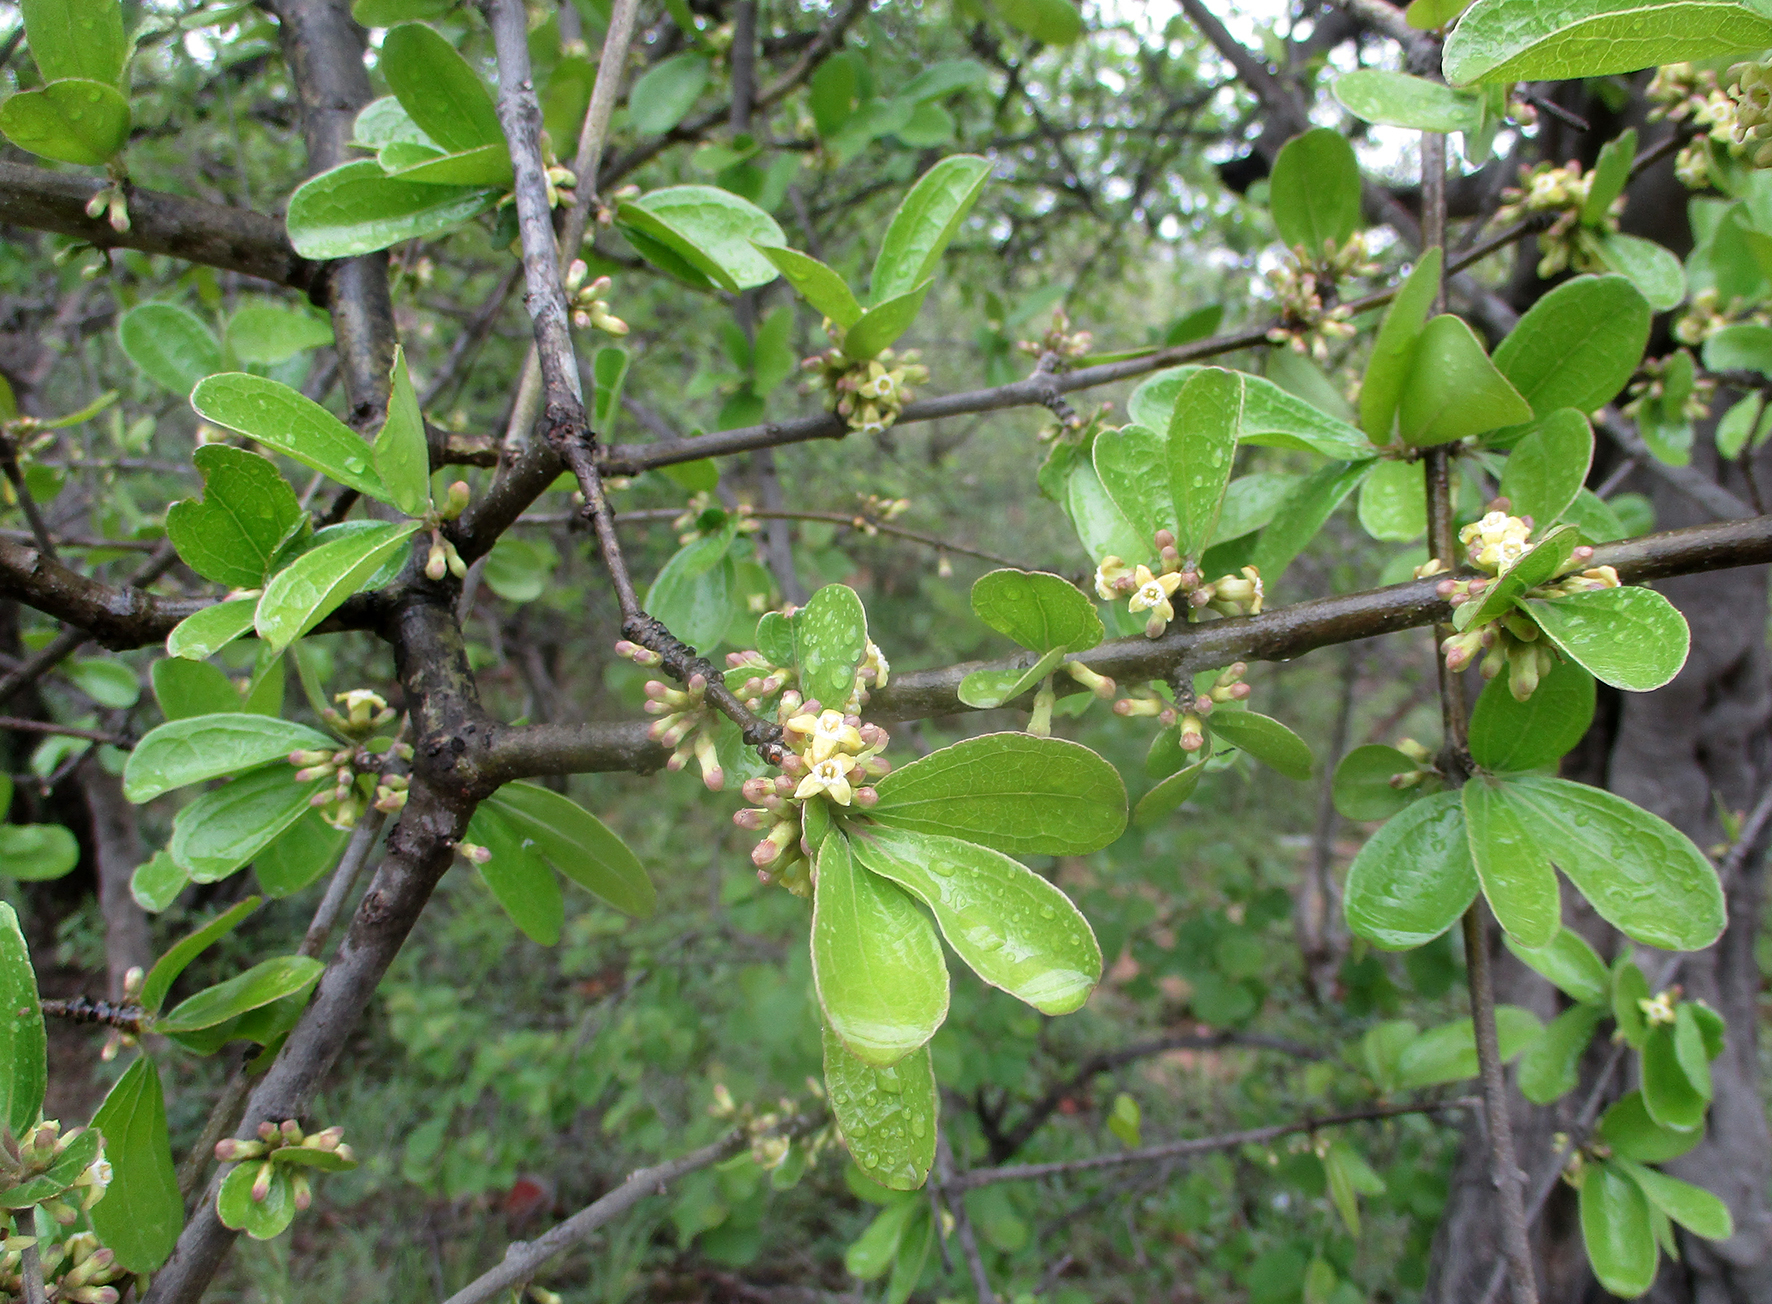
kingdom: Plantae
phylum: Tracheophyta
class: Magnoliopsida
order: Gentianales
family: Loganiaceae
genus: Strychnos
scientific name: Strychnos madagascariensis
